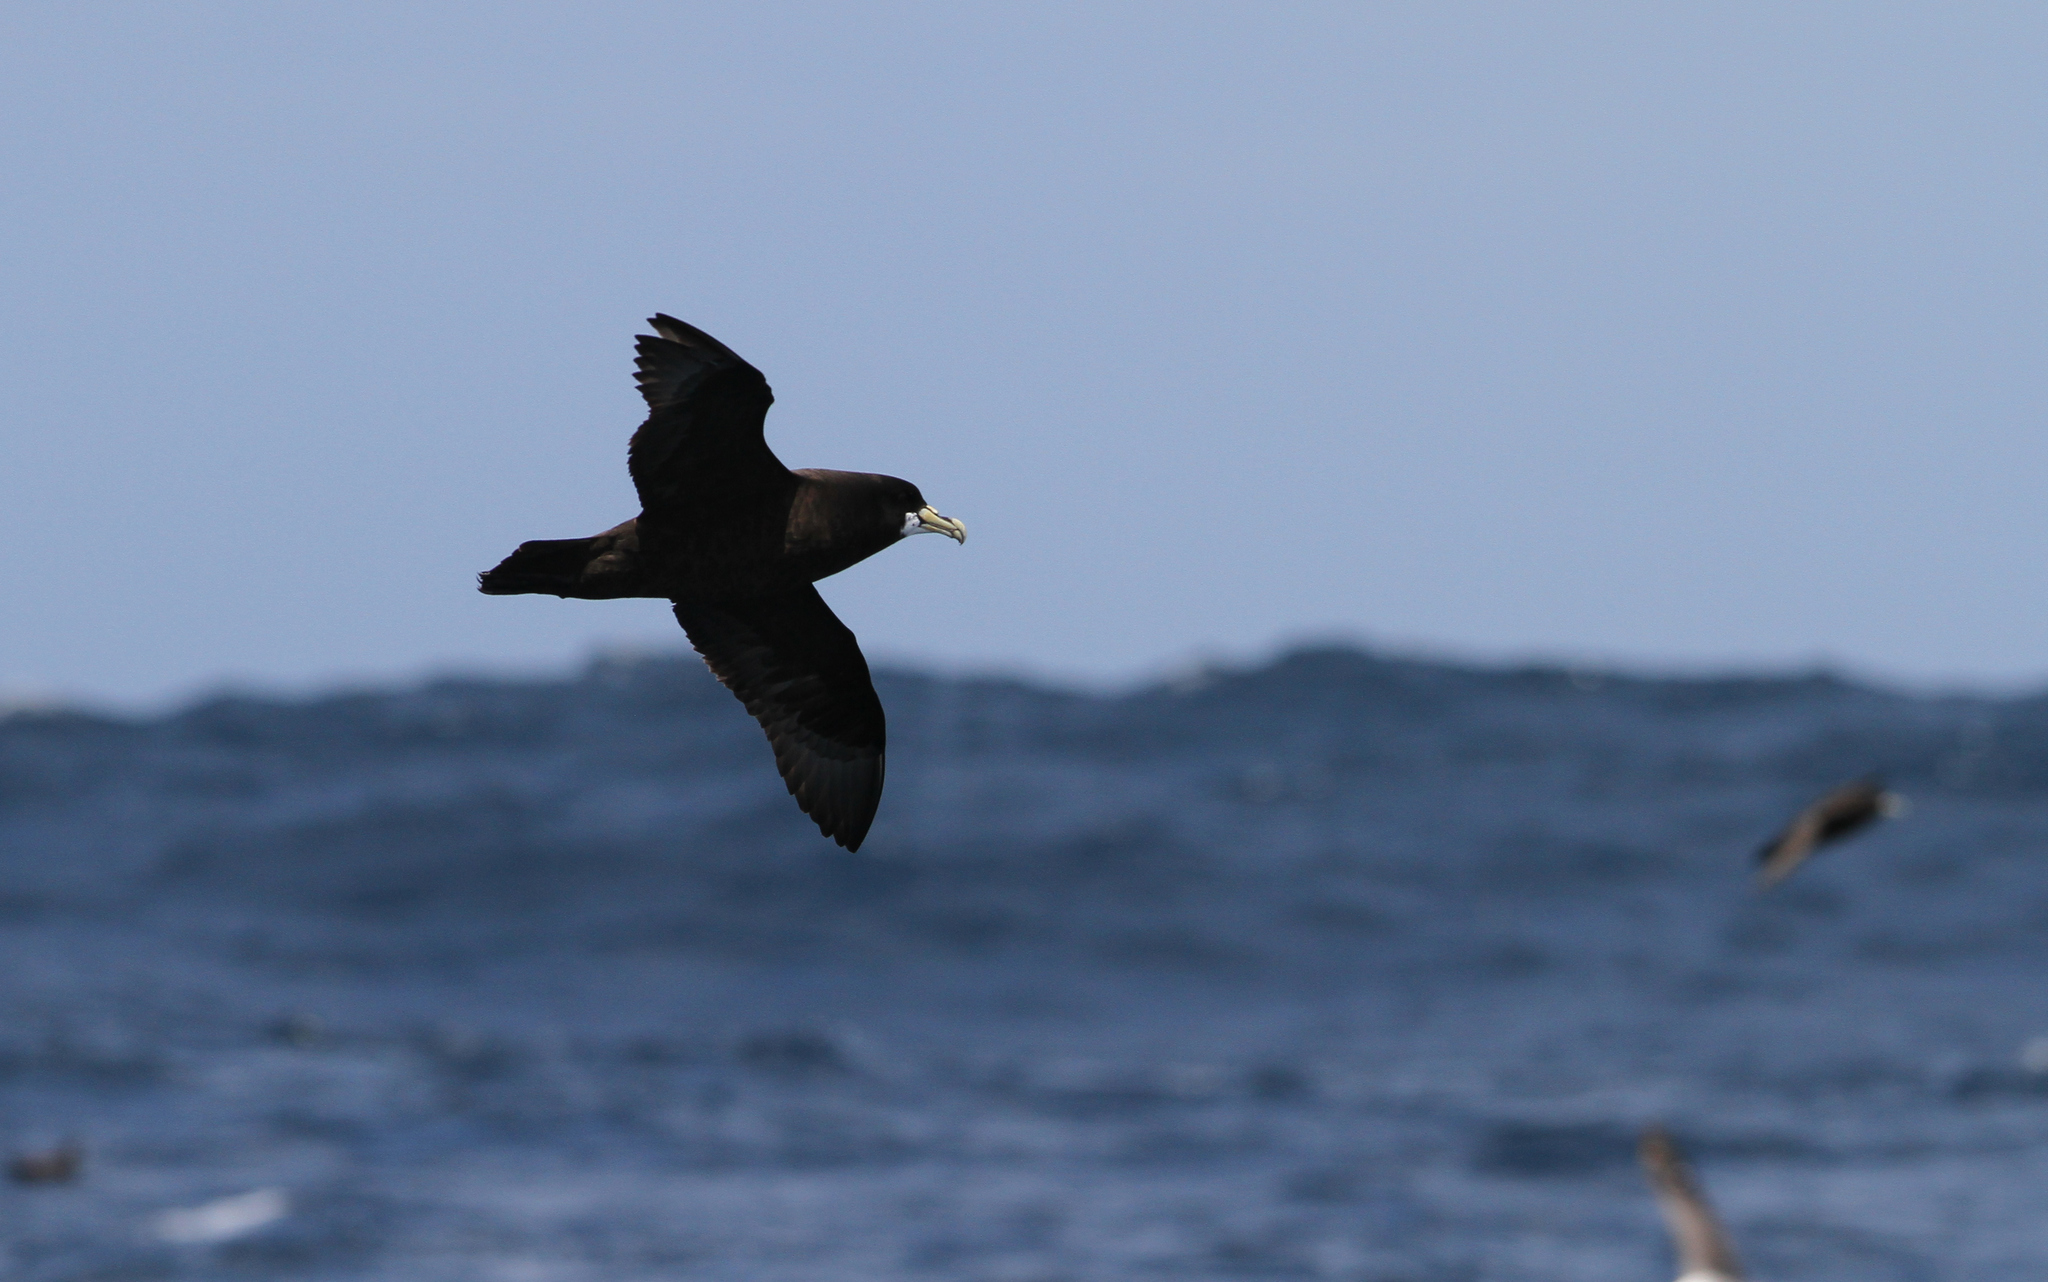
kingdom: Animalia
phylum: Chordata
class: Aves
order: Procellariiformes
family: Procellariidae
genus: Procellaria
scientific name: Procellaria aequinoctialis
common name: White-chinned petrel
